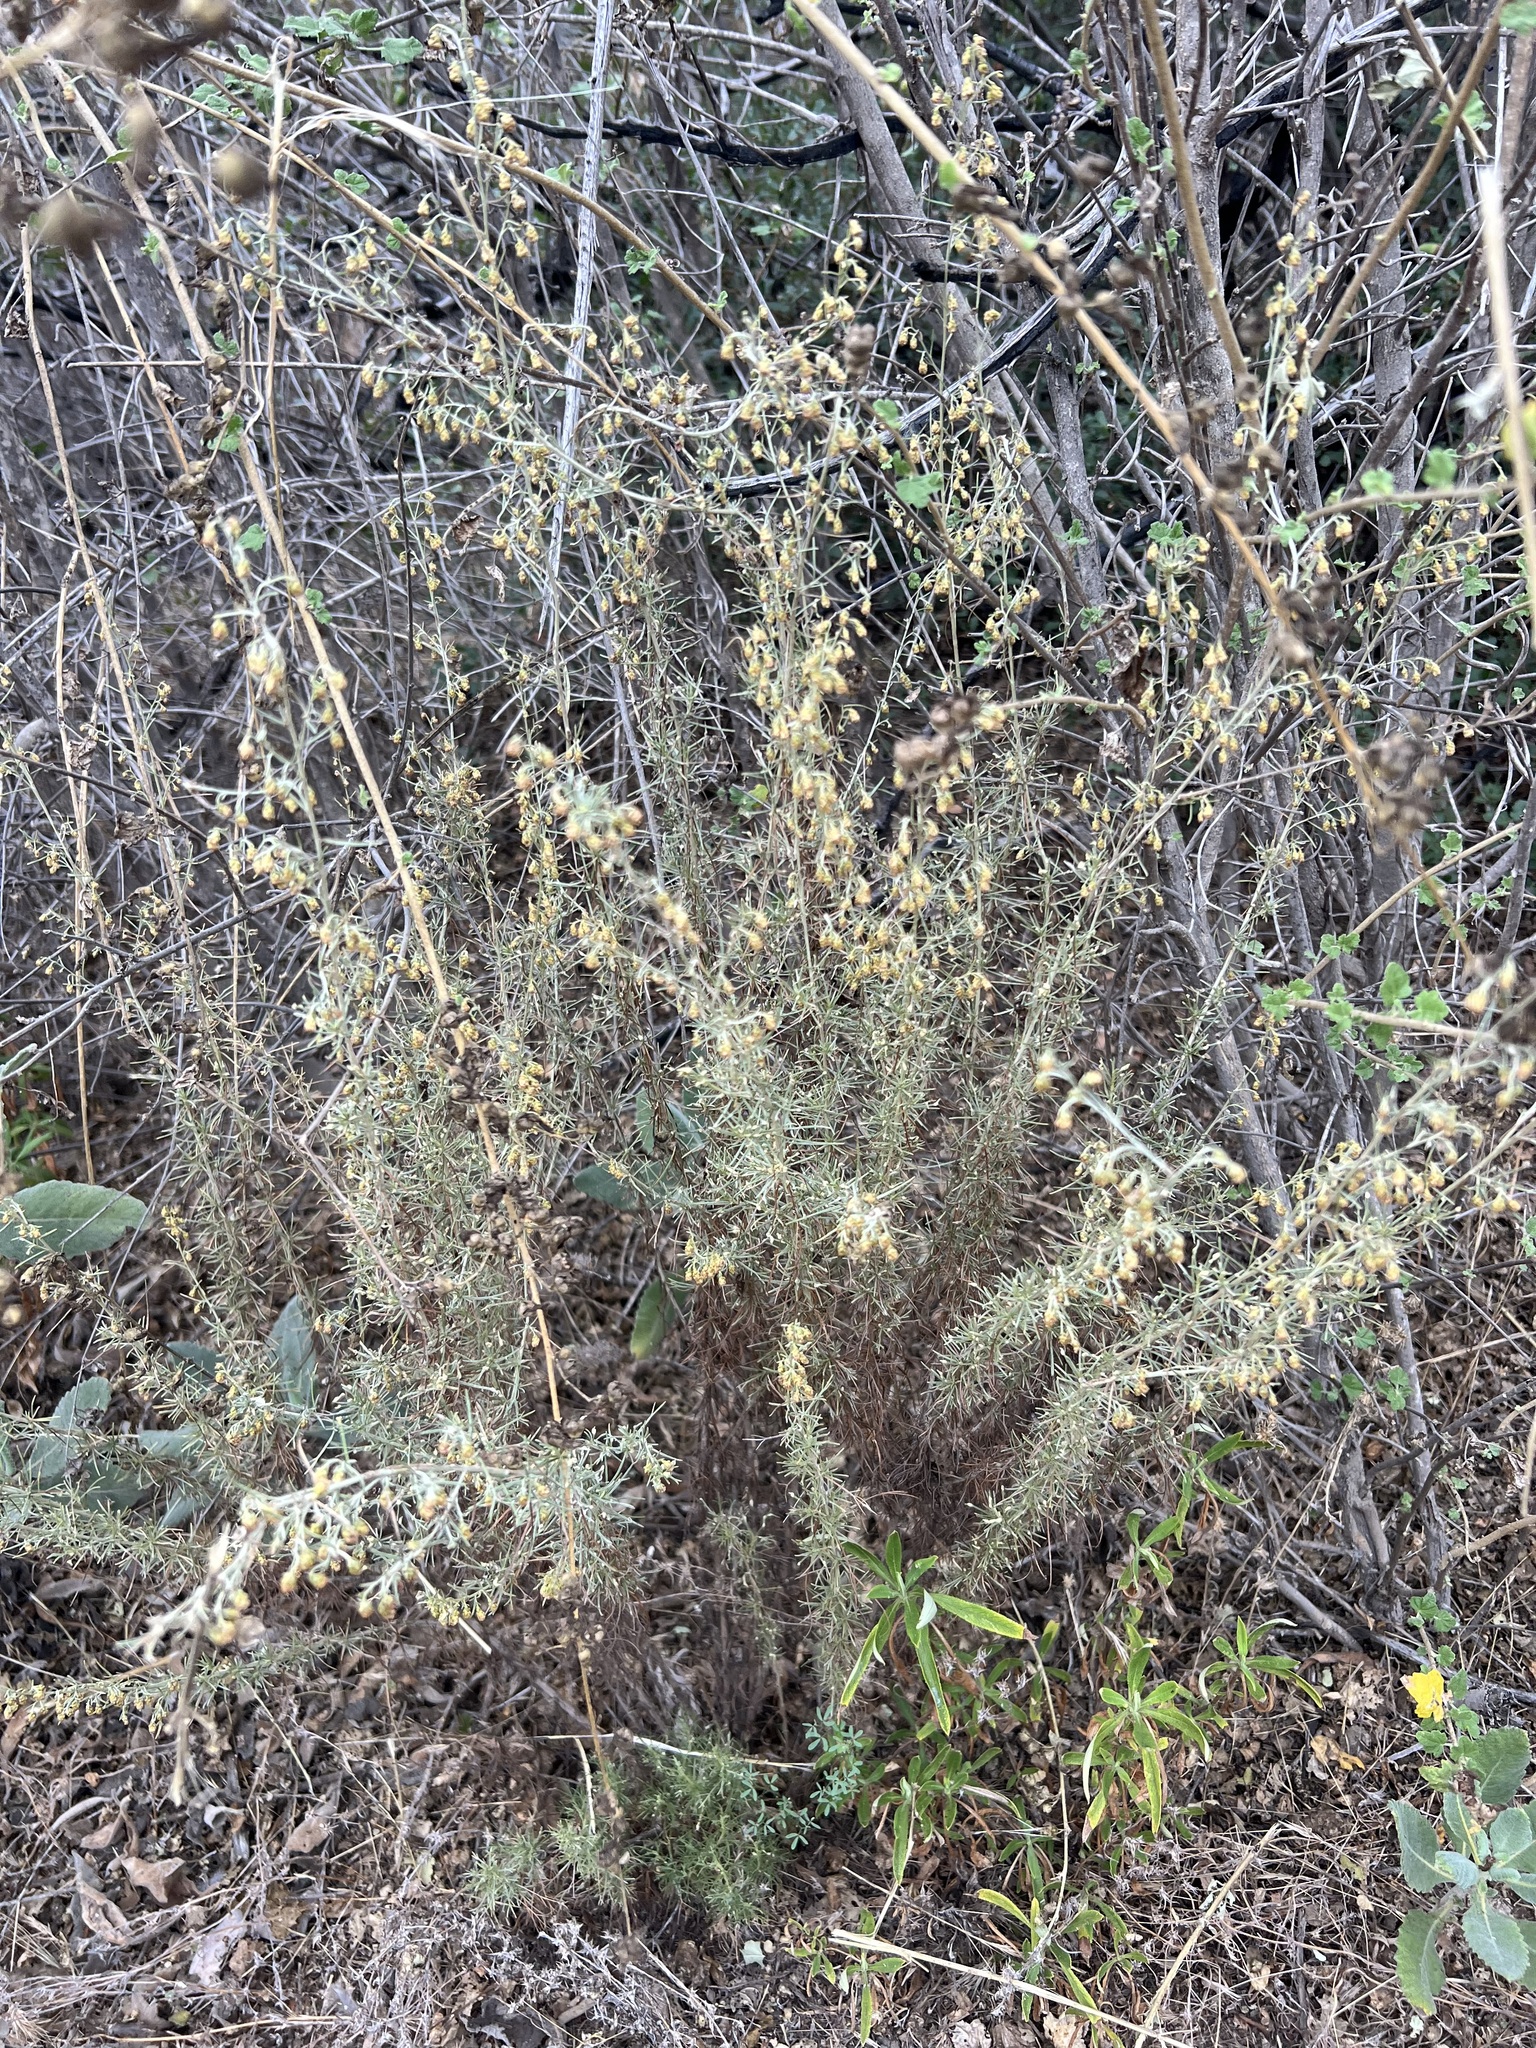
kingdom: Plantae
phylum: Tracheophyta
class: Magnoliopsida
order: Asterales
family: Asteraceae
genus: Artemisia
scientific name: Artemisia californica
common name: California sagebrush
